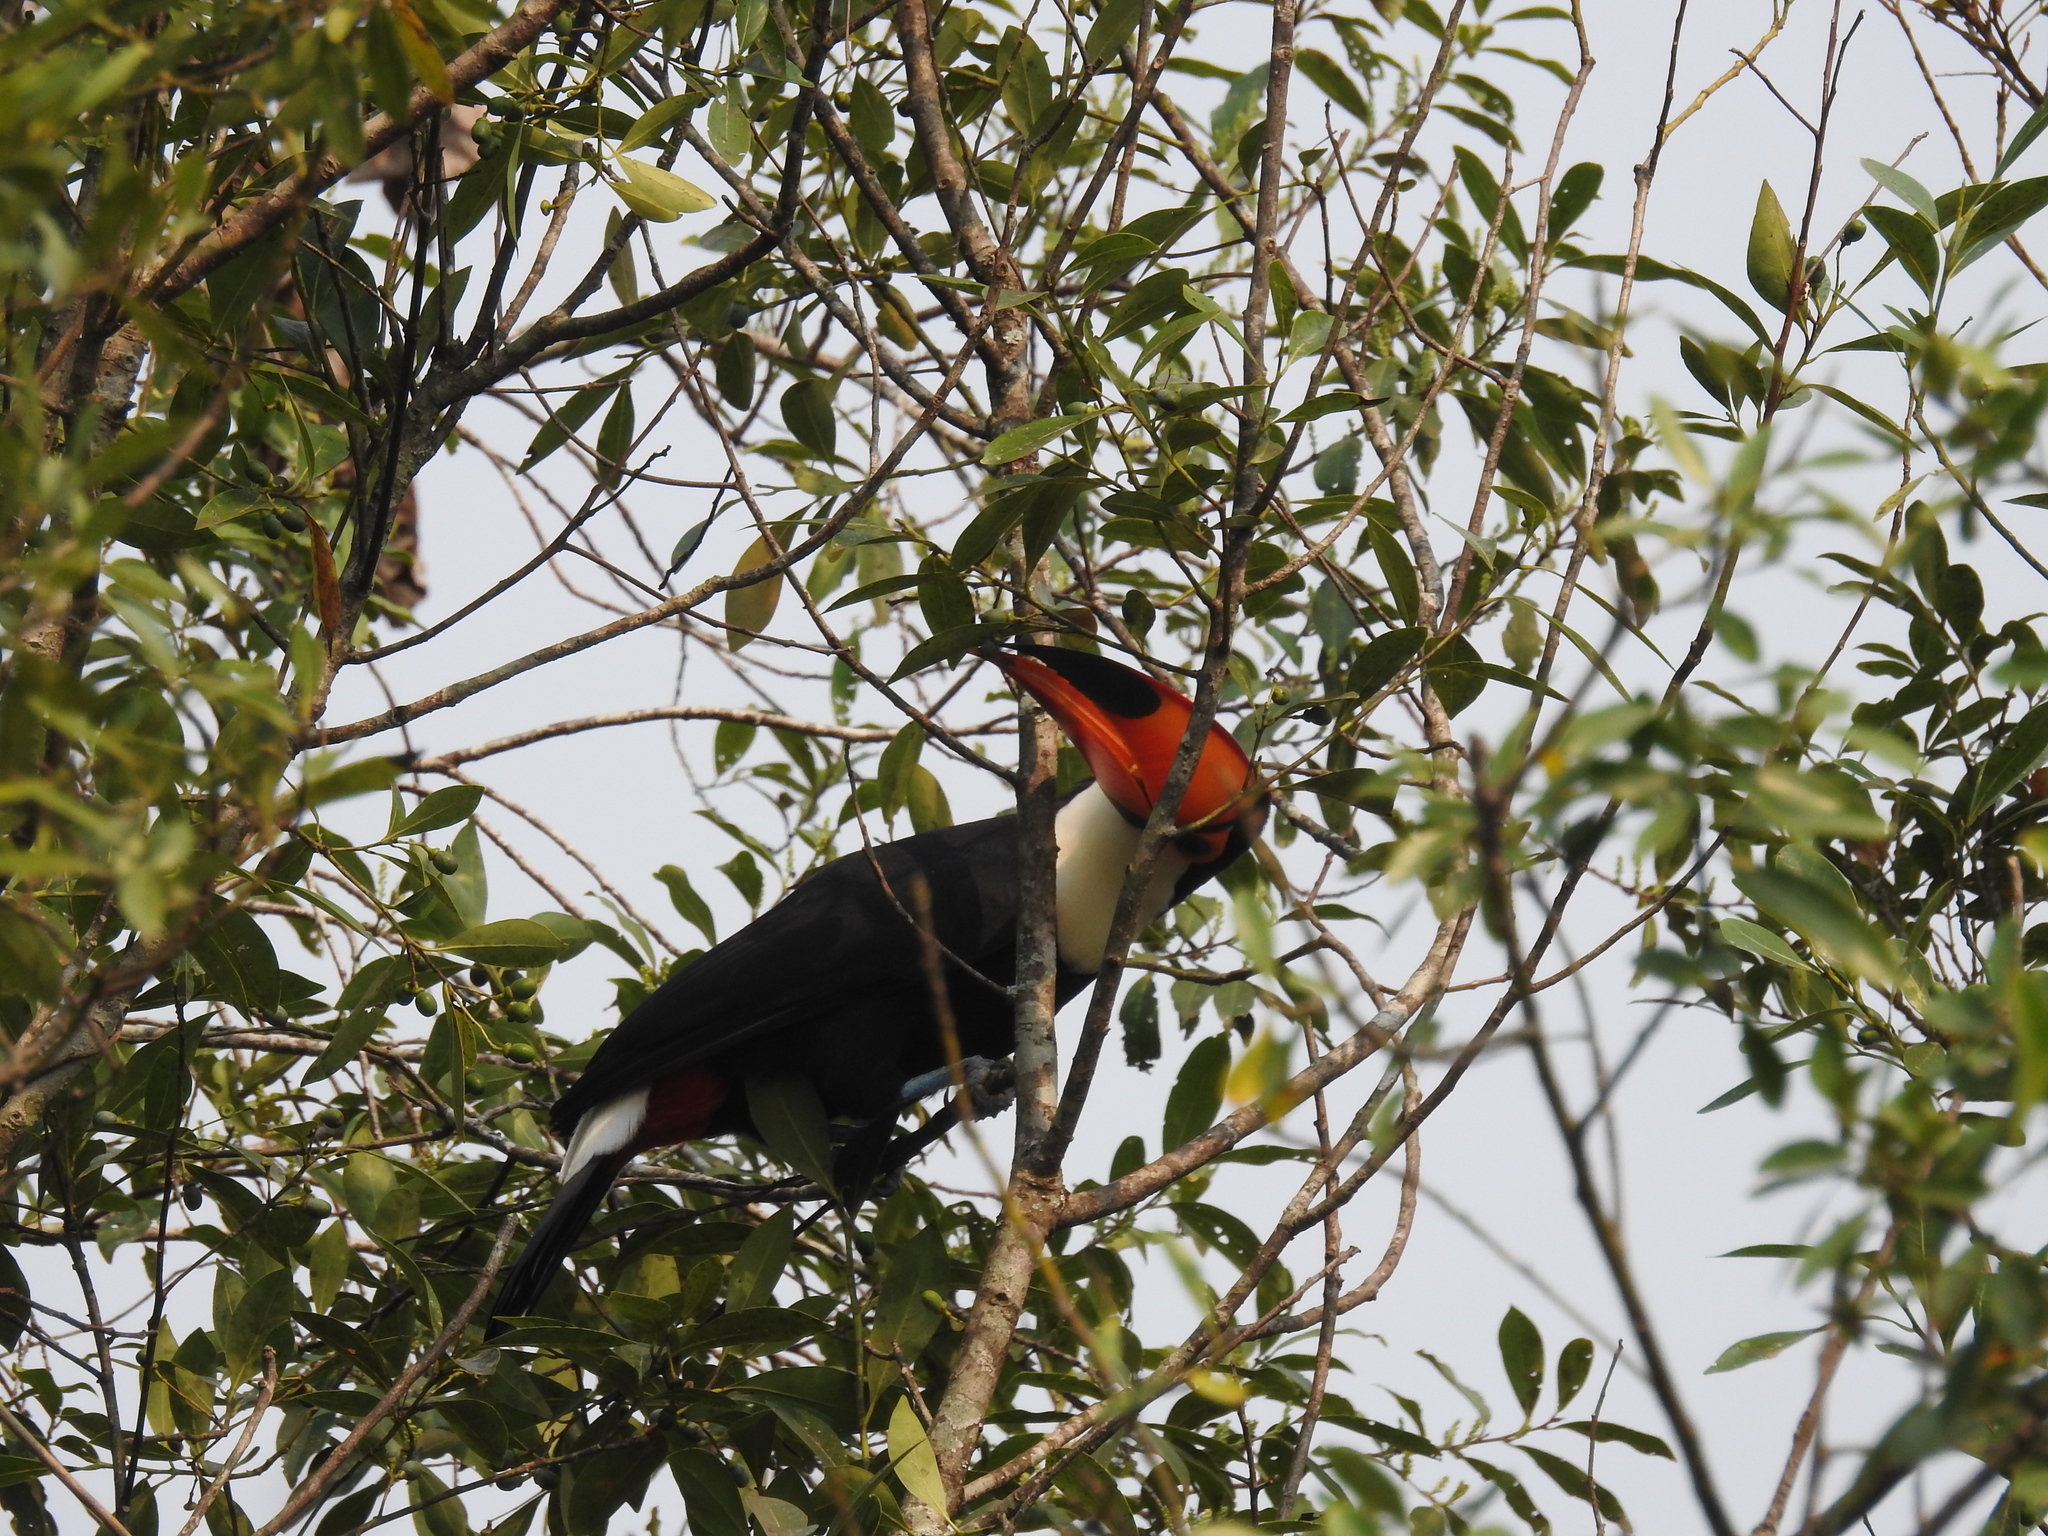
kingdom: Animalia
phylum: Chordata
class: Aves
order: Piciformes
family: Ramphastidae
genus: Ramphastos
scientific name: Ramphastos toco
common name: Toco toucan
